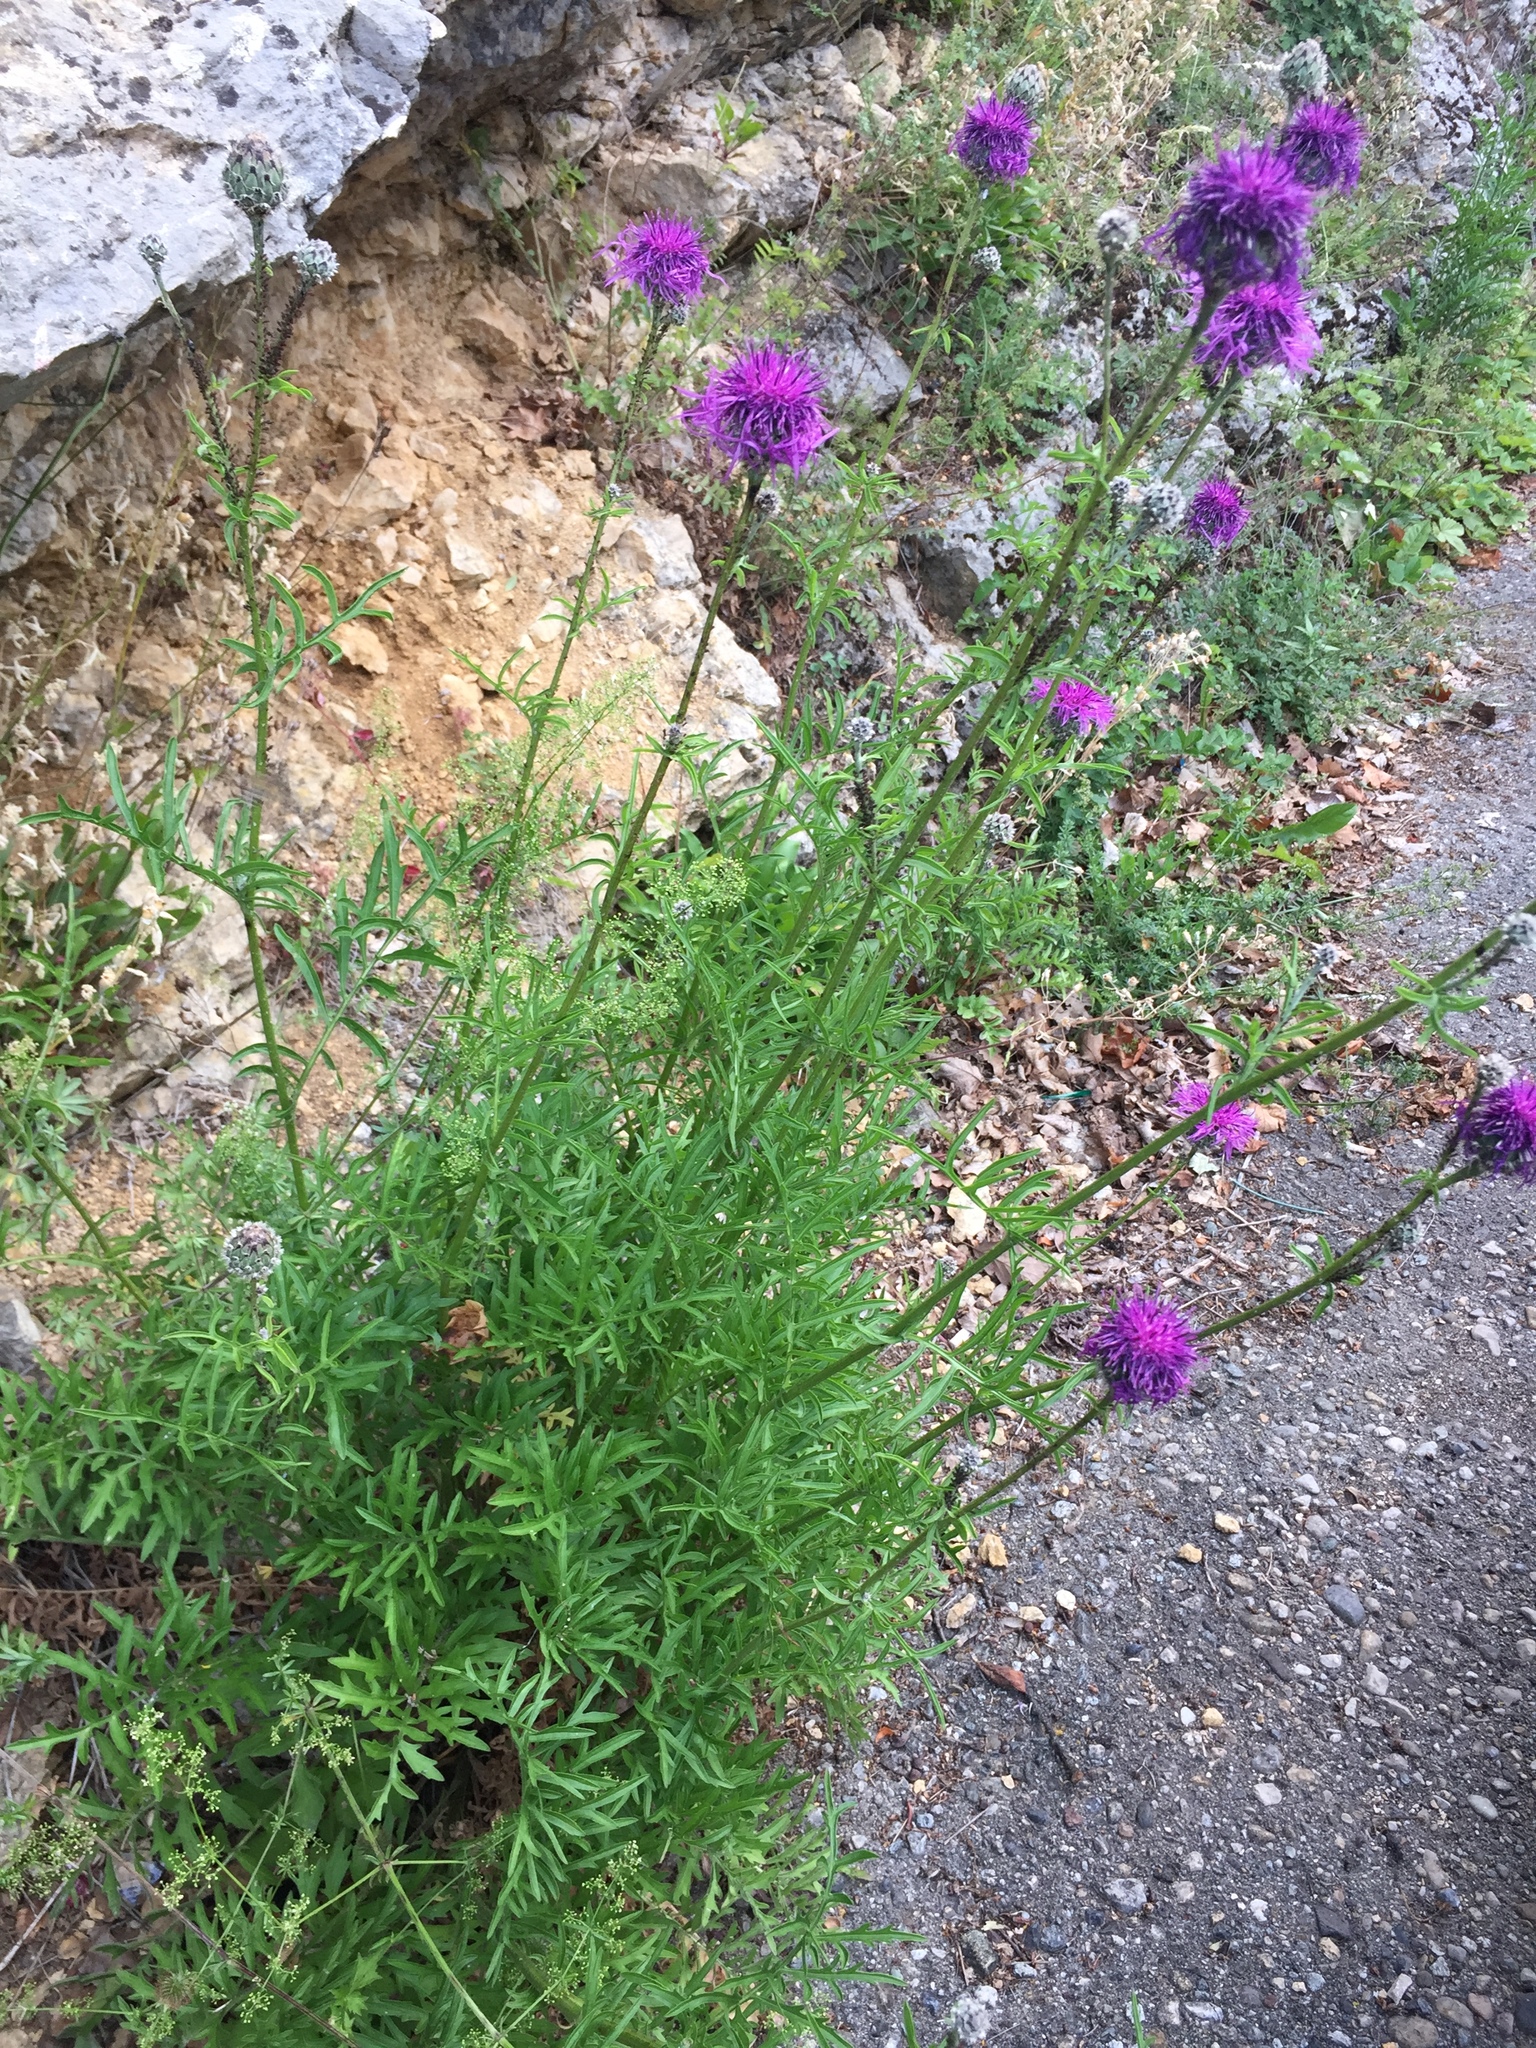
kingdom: Plantae
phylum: Tracheophyta
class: Magnoliopsida
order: Asterales
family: Asteraceae
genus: Centaurea
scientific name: Centaurea scabiosa
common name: Greater knapweed
